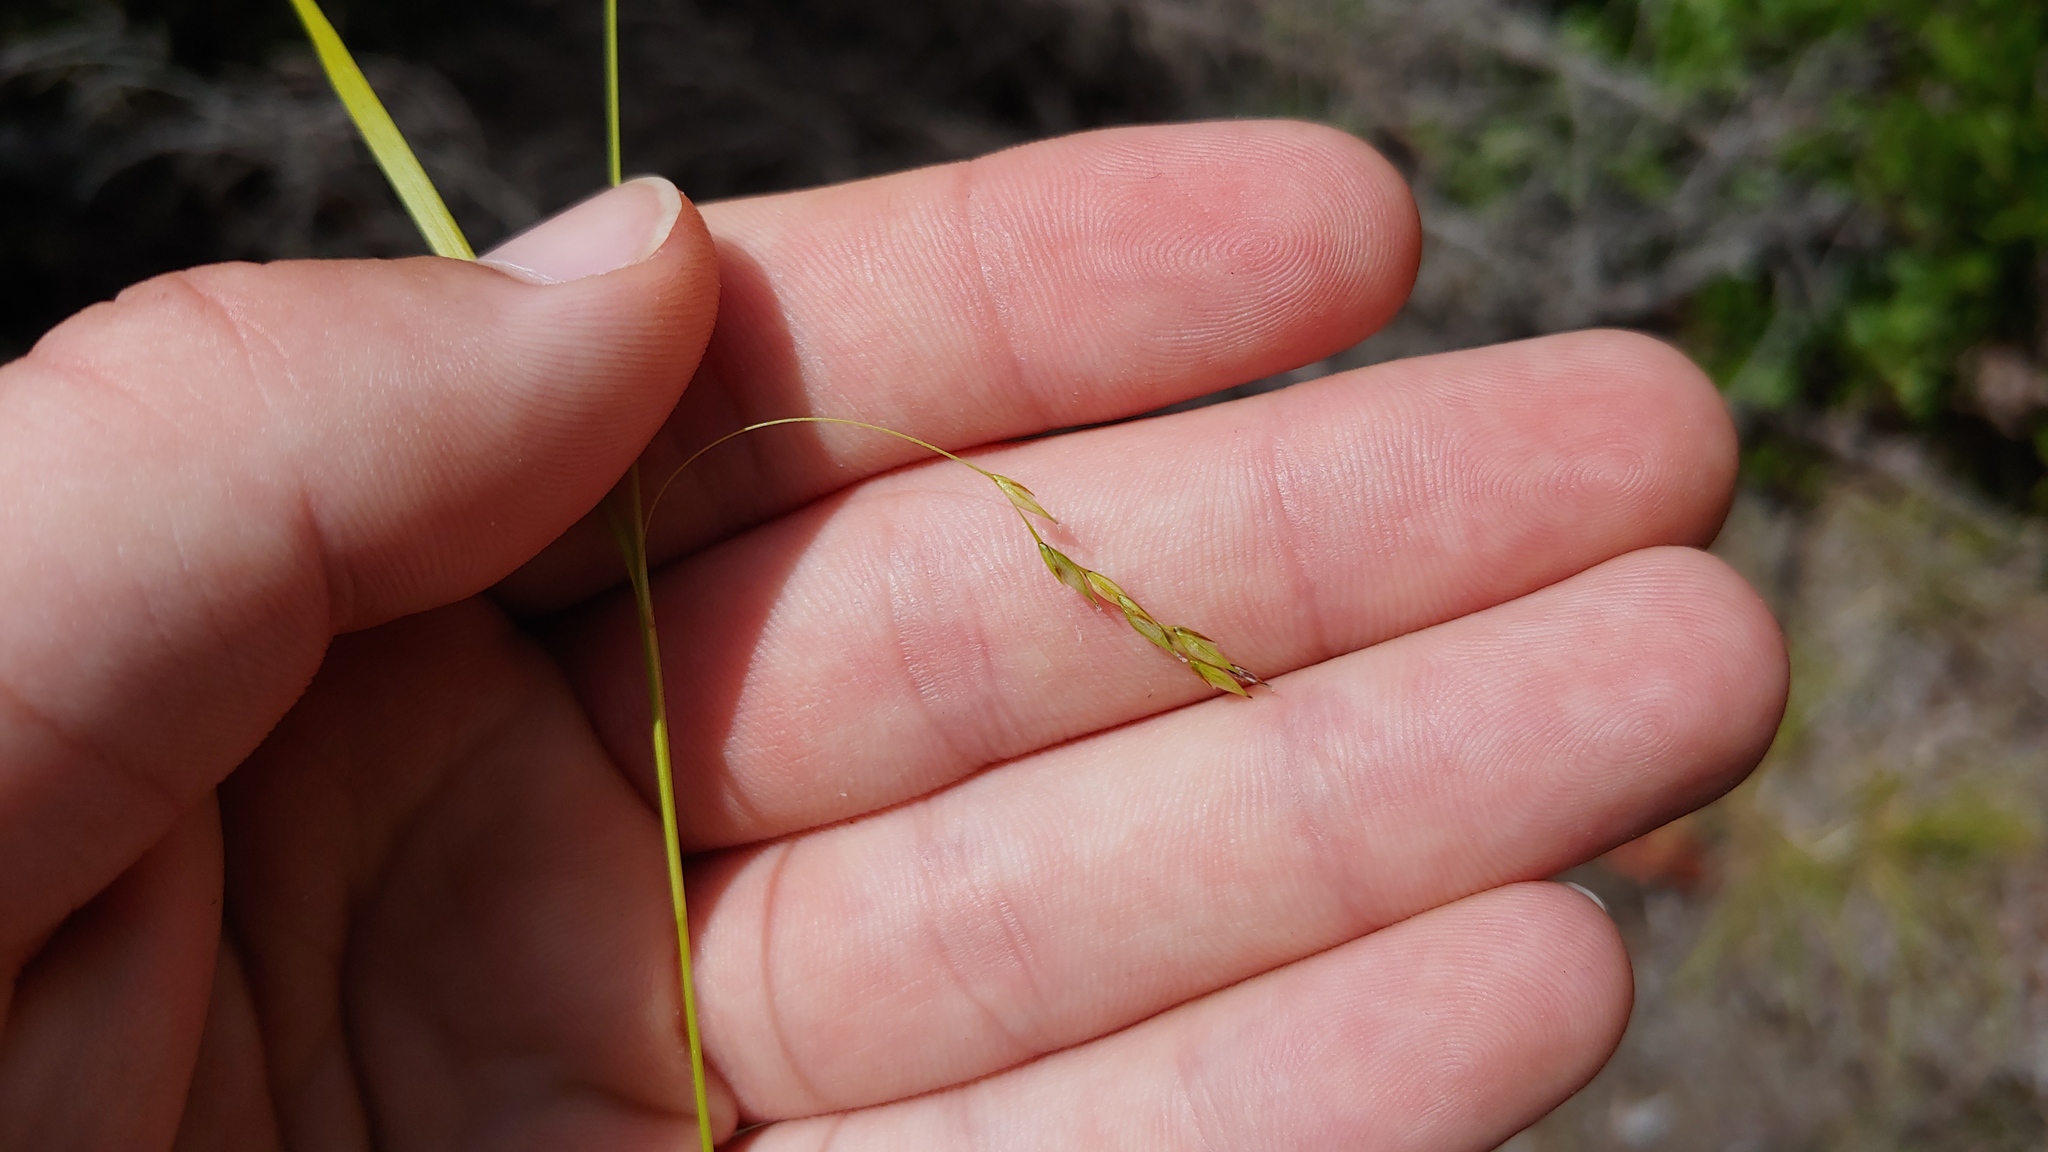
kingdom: Plantae
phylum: Tracheophyta
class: Liliopsida
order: Poales
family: Cyperaceae
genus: Carex
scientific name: Carex debilis
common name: White-edge sedge
